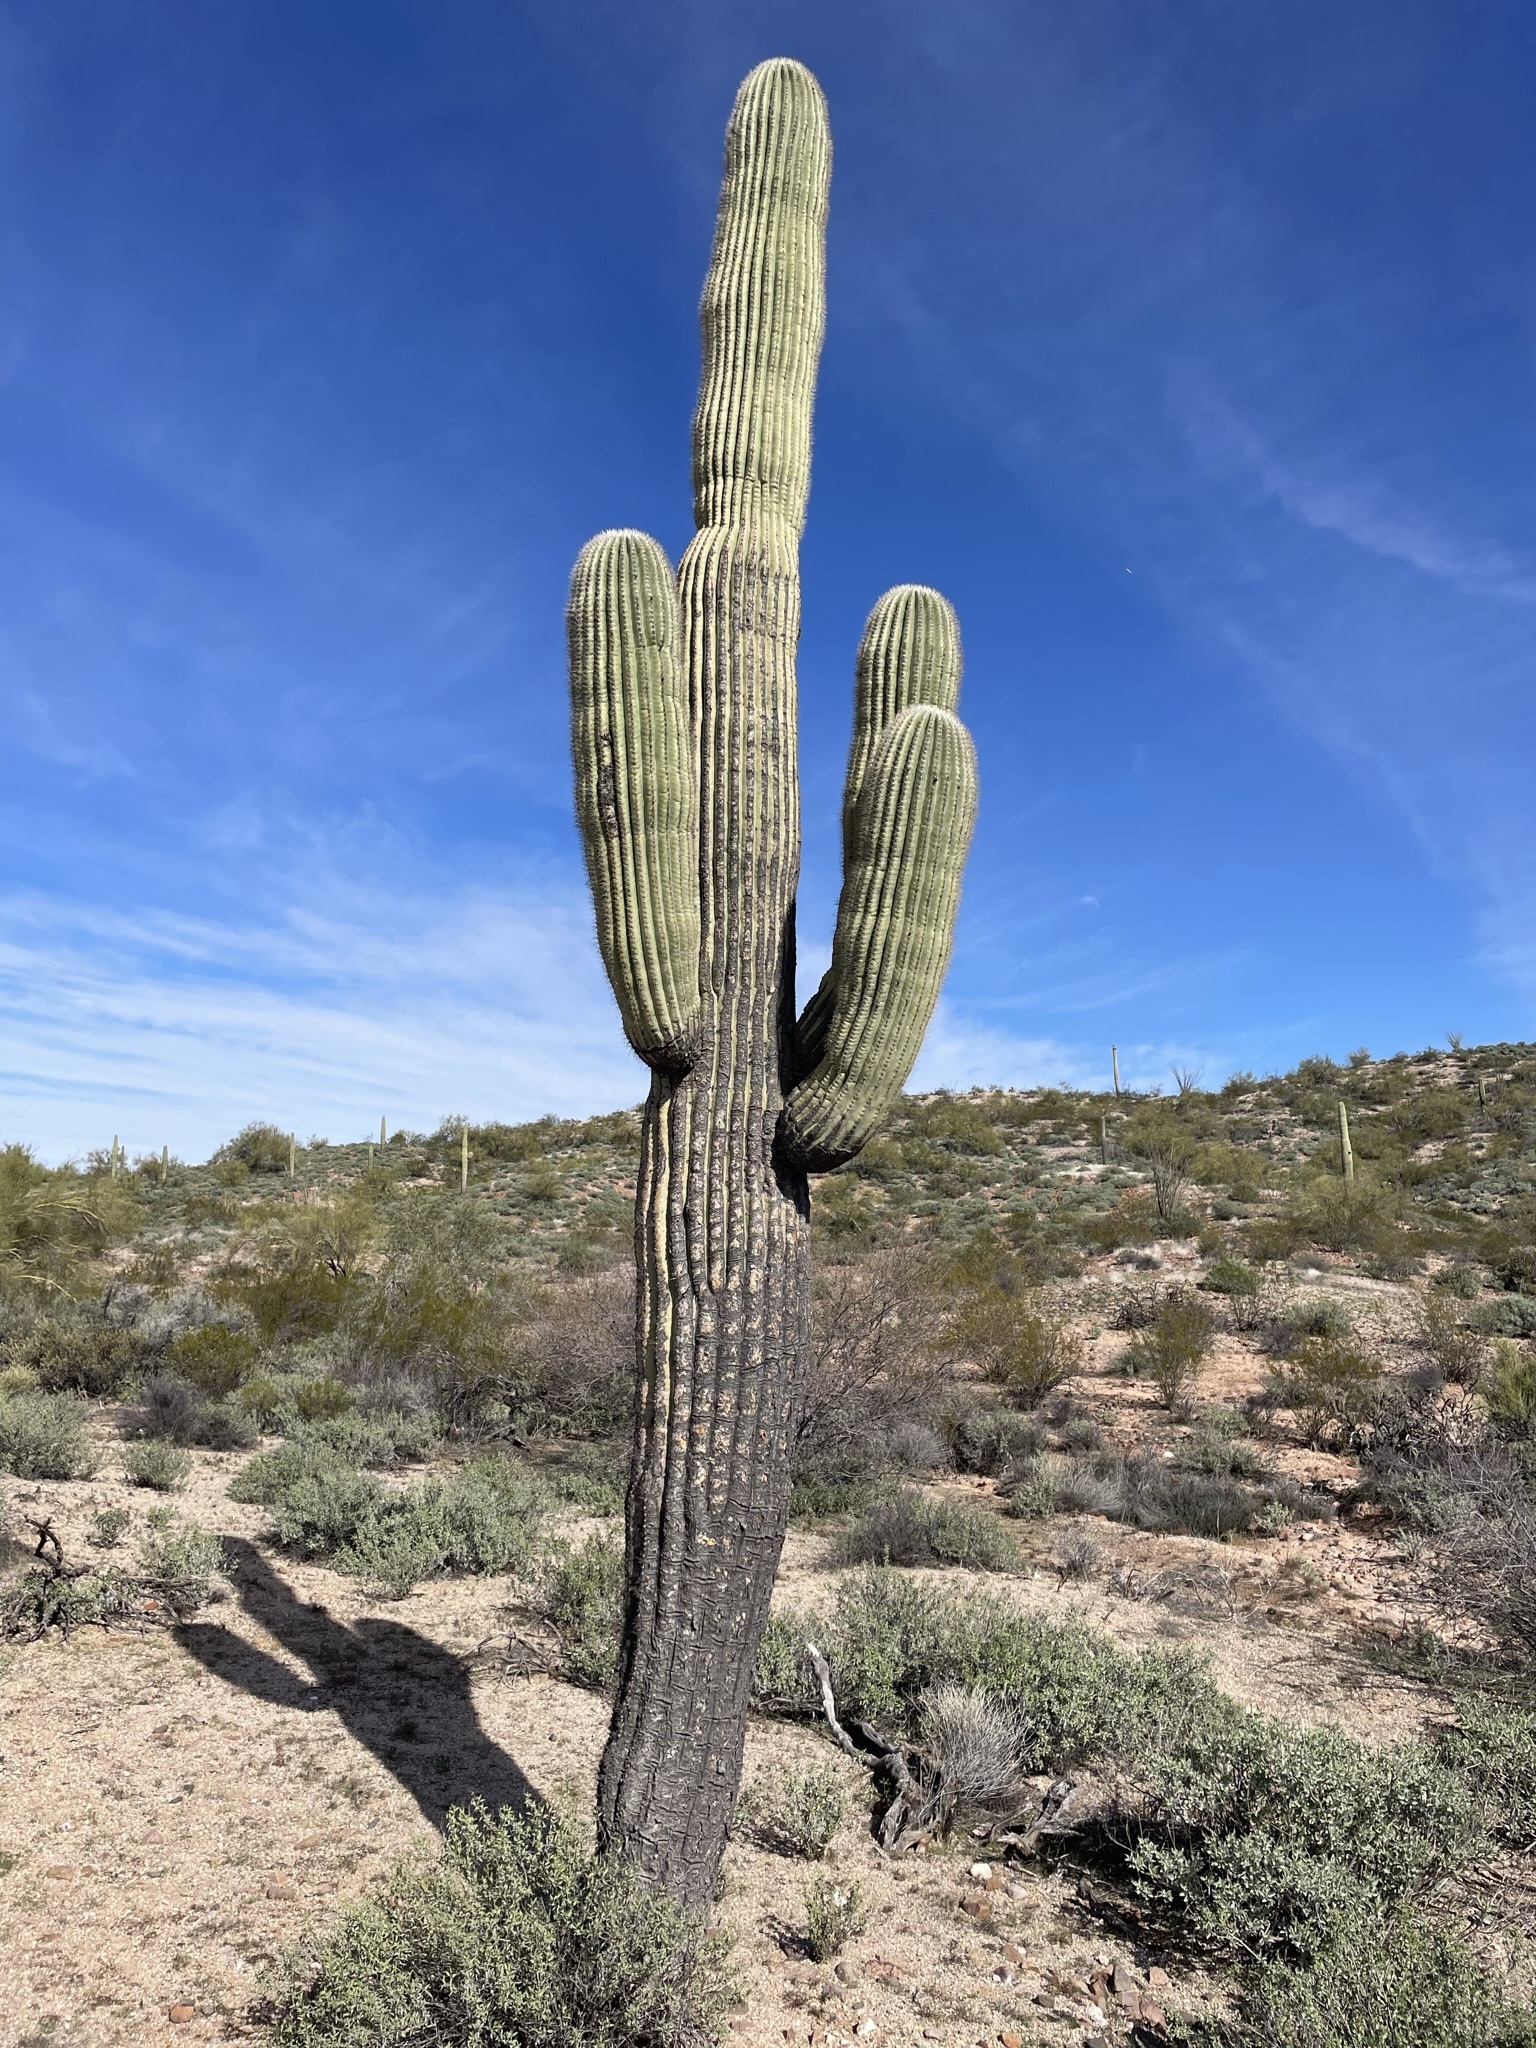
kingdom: Plantae
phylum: Tracheophyta
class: Magnoliopsida
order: Caryophyllales
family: Cactaceae
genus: Carnegiea
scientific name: Carnegiea gigantea
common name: Saguaro
